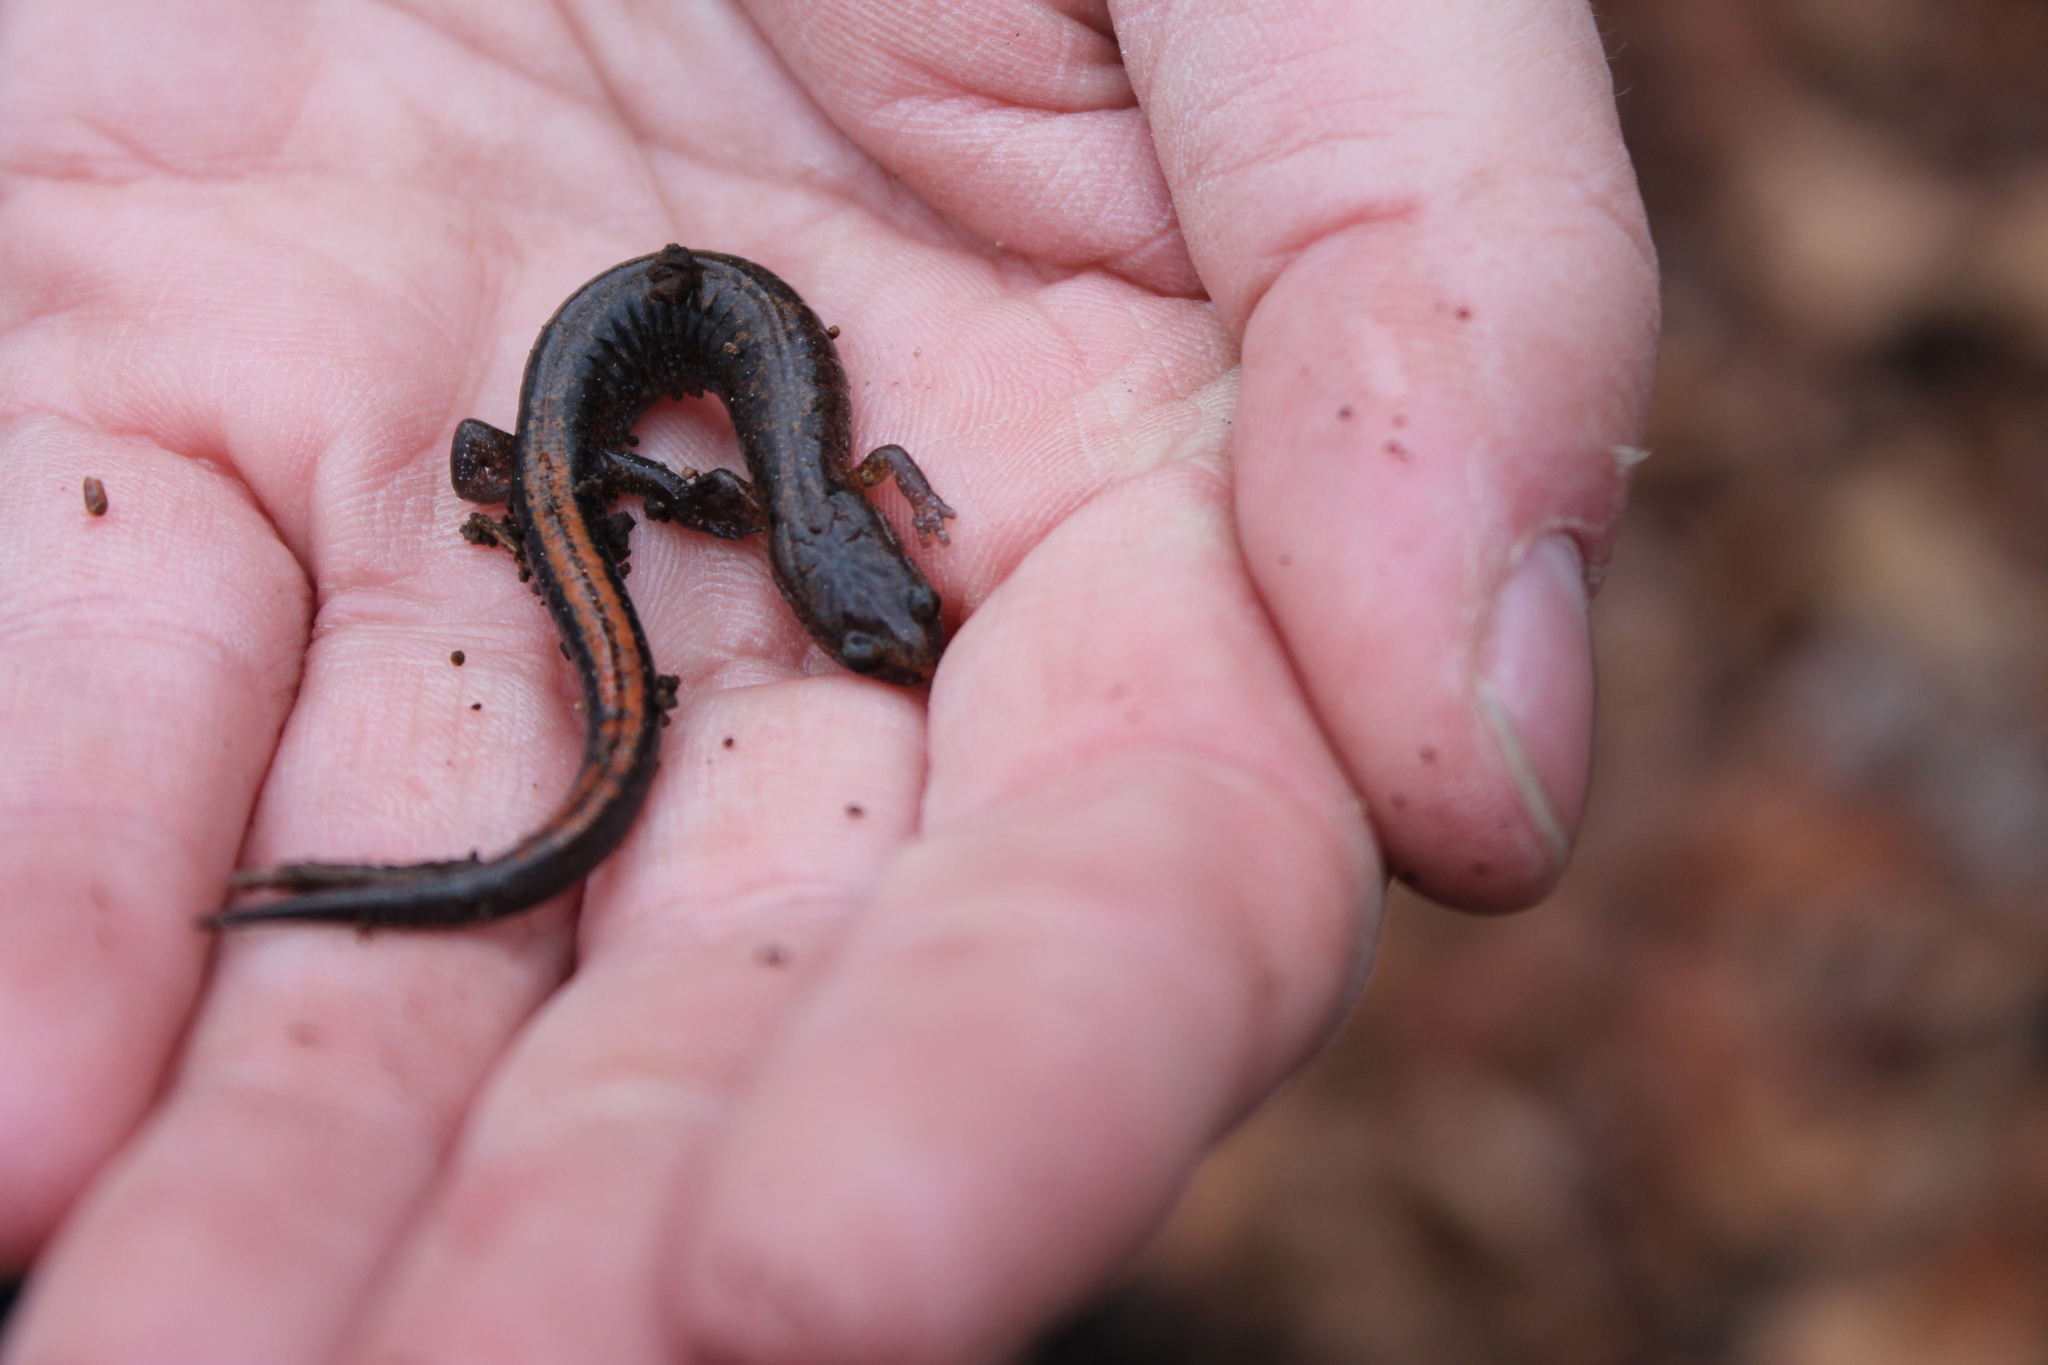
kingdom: Animalia
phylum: Chordata
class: Amphibia
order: Caudata
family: Plethodontidae
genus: Plethodon
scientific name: Plethodon dorsalis
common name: Northern zigzag salamander
